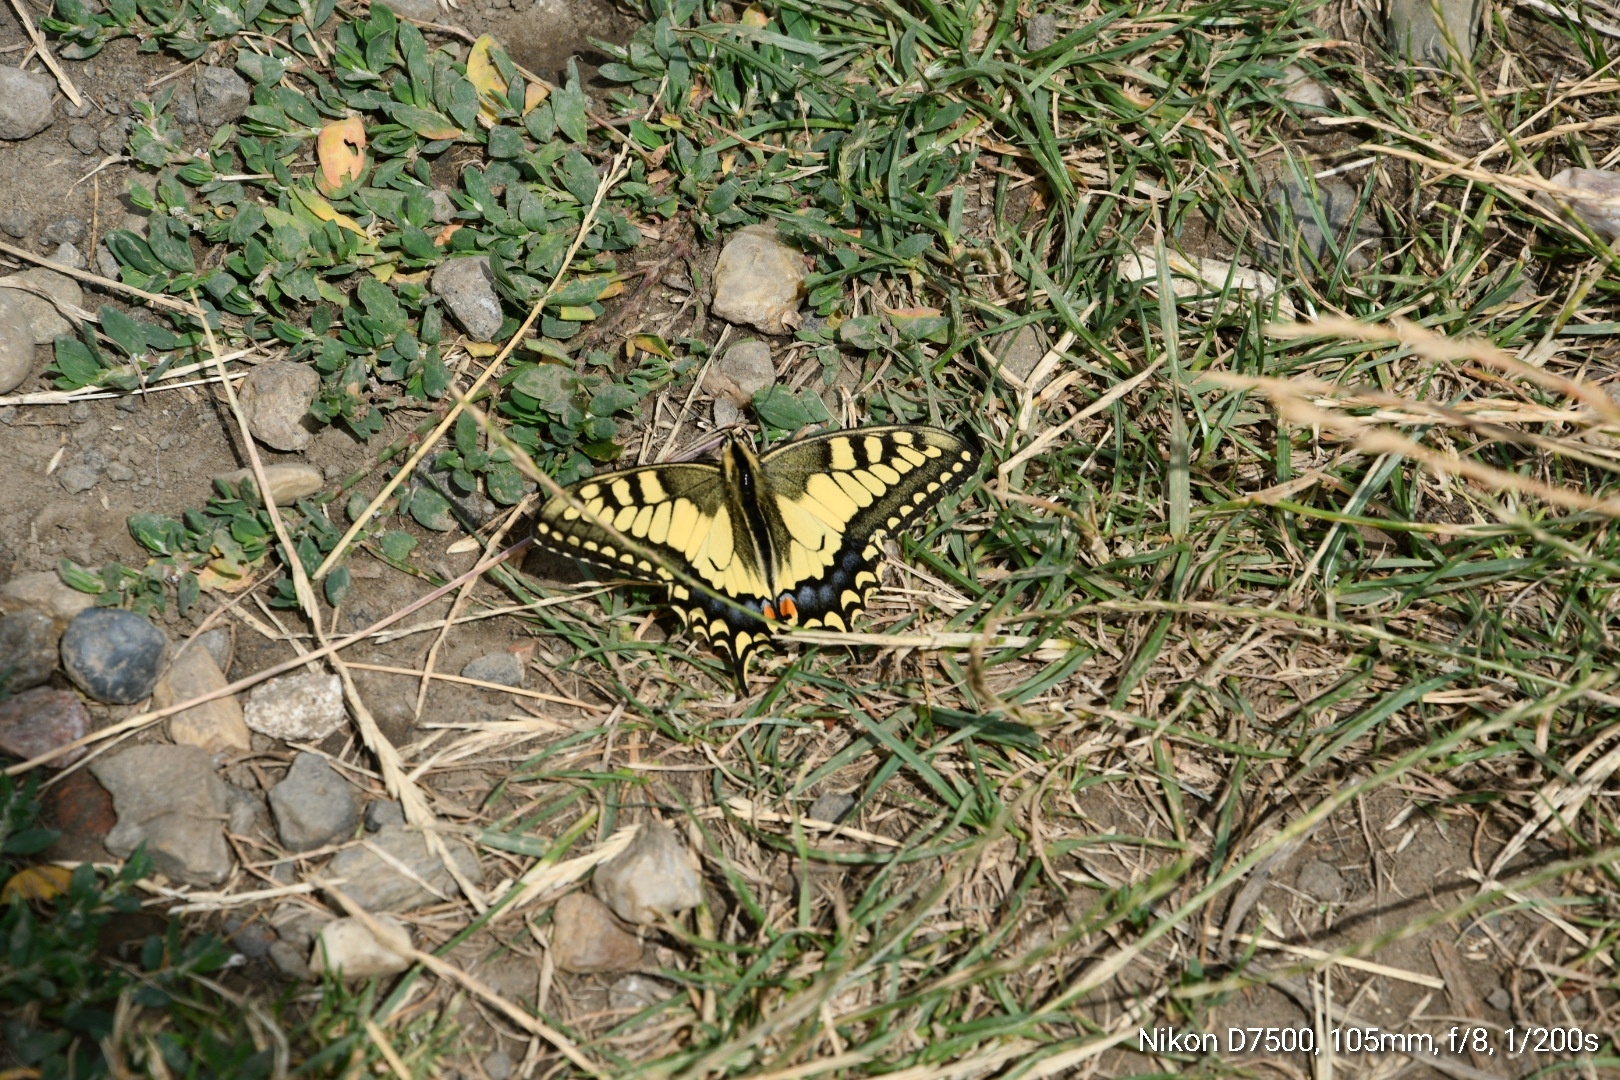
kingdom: Animalia
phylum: Arthropoda
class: Insecta
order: Lepidoptera
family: Papilionidae
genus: Papilio
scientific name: Papilio machaon
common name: Swallowtail
